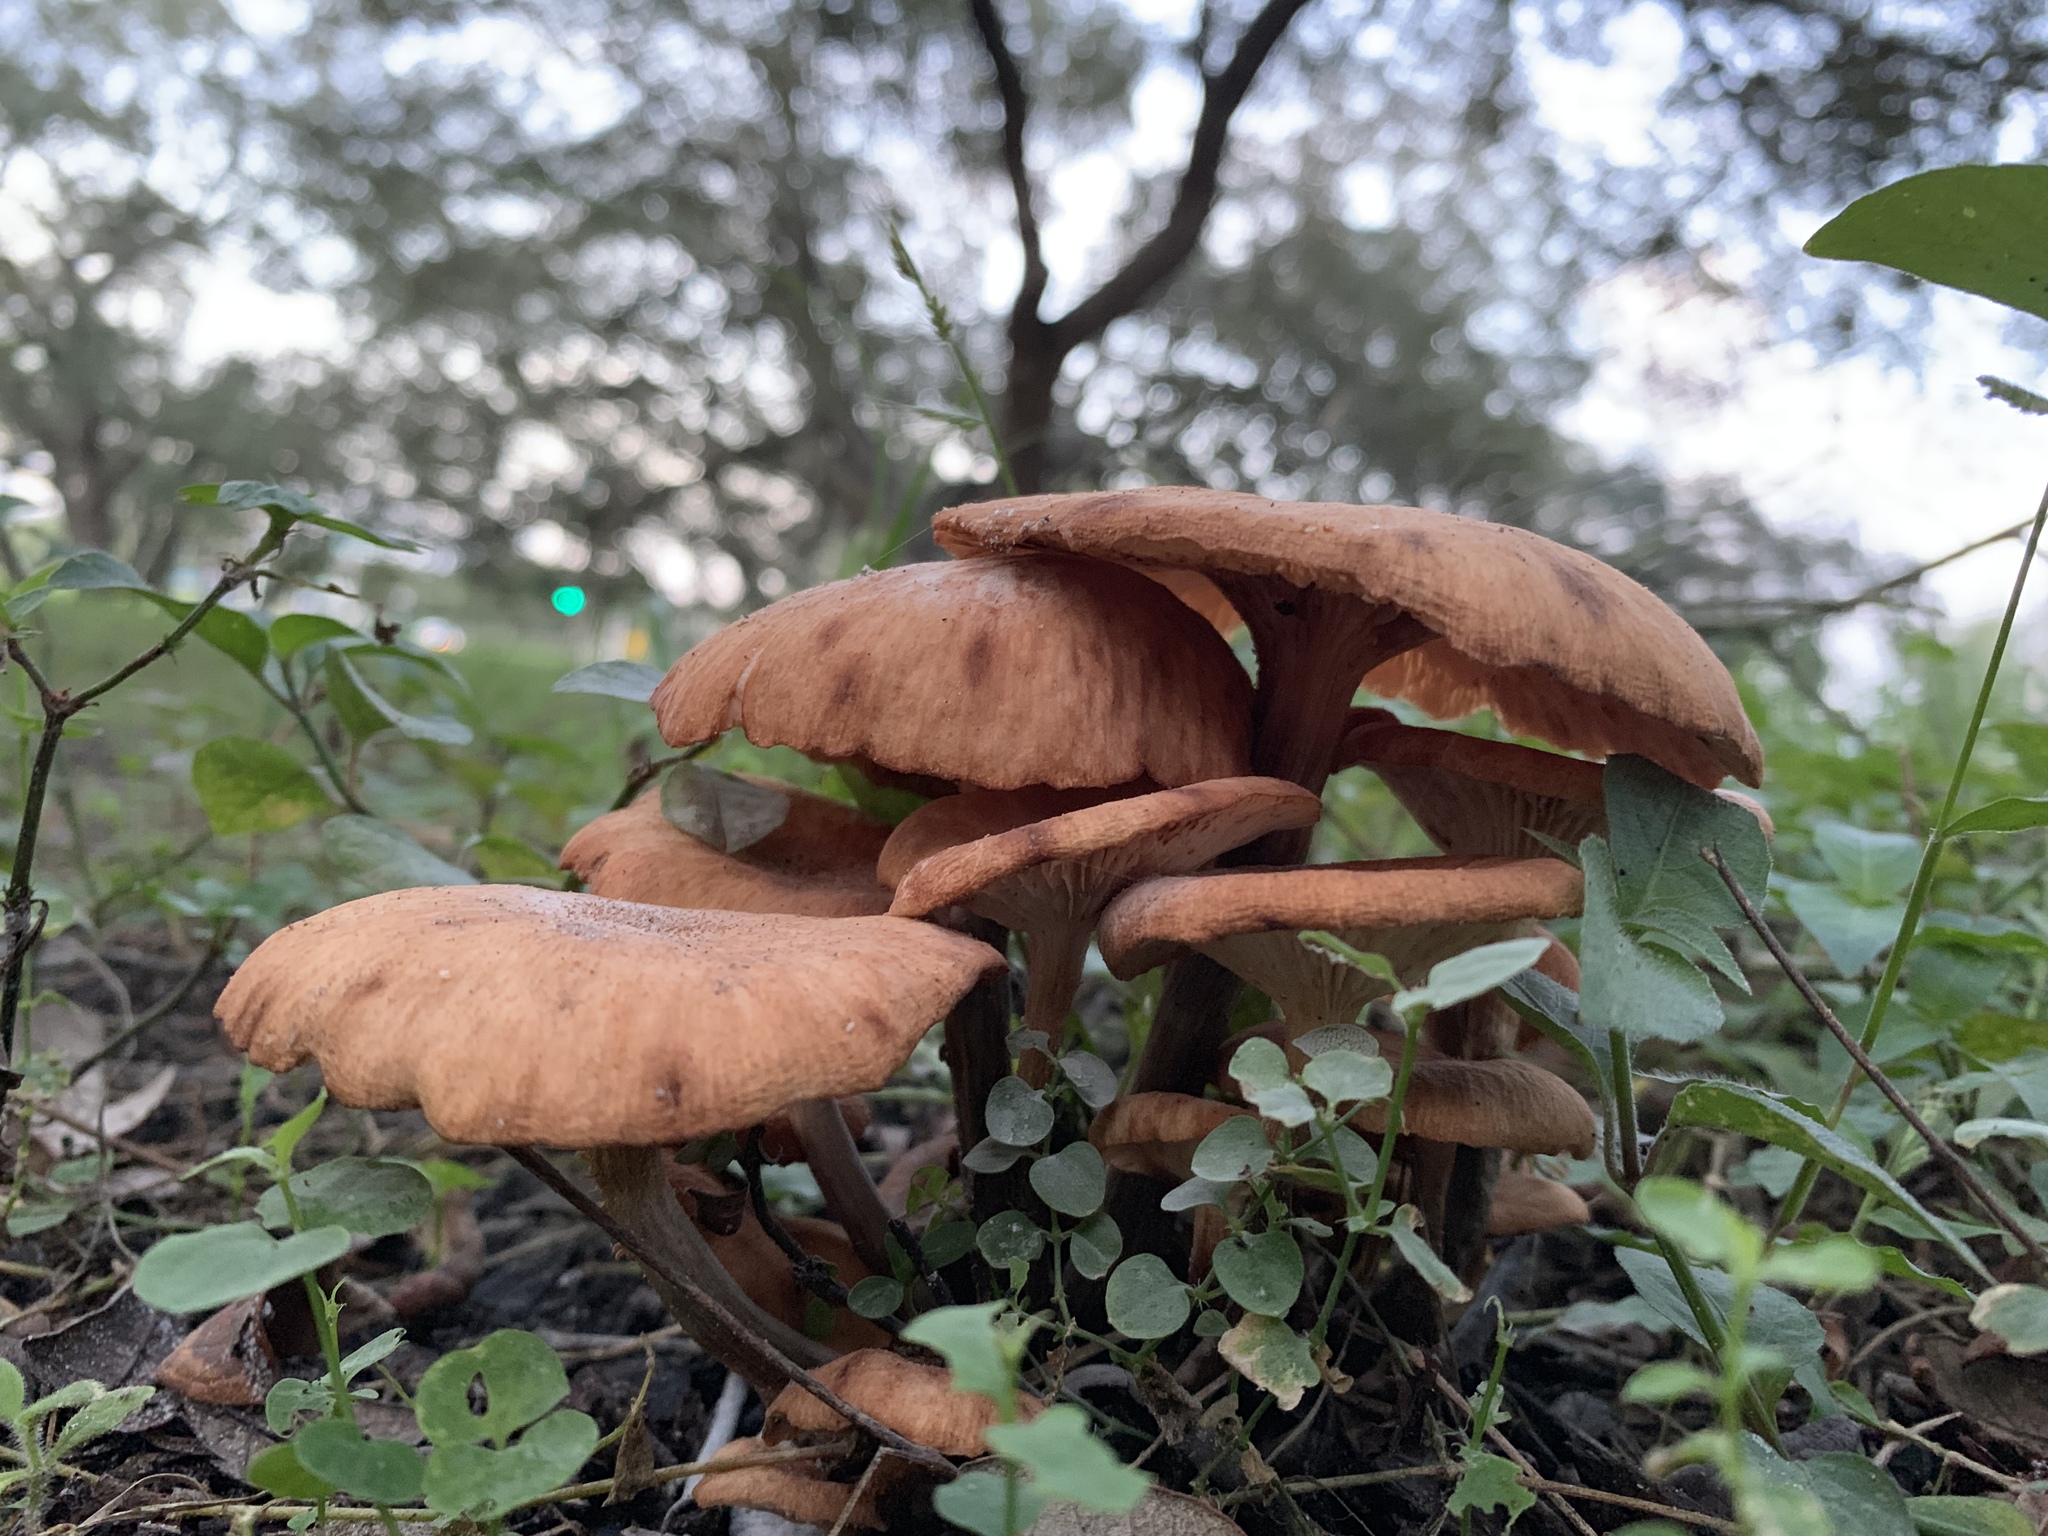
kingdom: Fungi
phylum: Basidiomycota
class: Agaricomycetes
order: Agaricales
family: Physalacriaceae
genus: Desarmillaria
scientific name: Desarmillaria caespitosa
